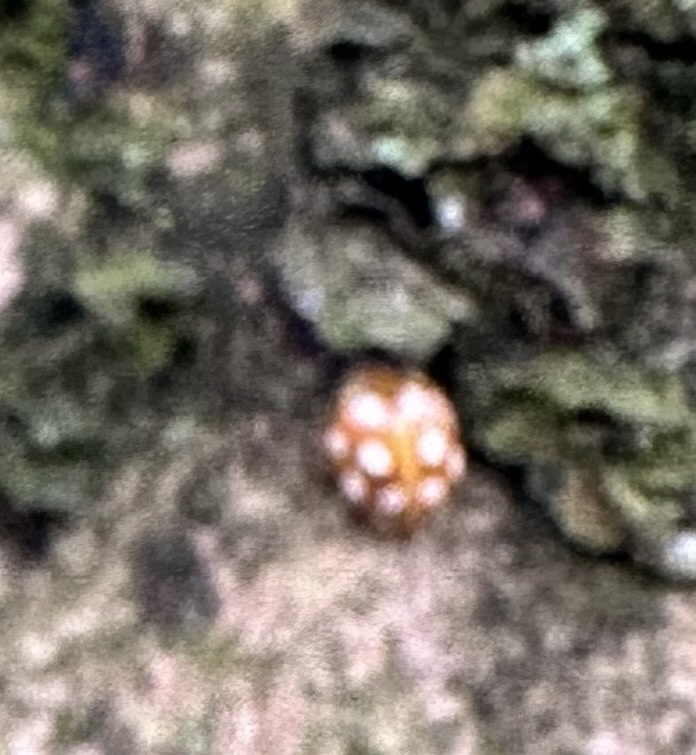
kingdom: Animalia
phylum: Arthropoda
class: Insecta
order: Coleoptera
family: Coccinellidae
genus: Halyzia
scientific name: Halyzia sedecimguttata
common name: Orange ladybird
